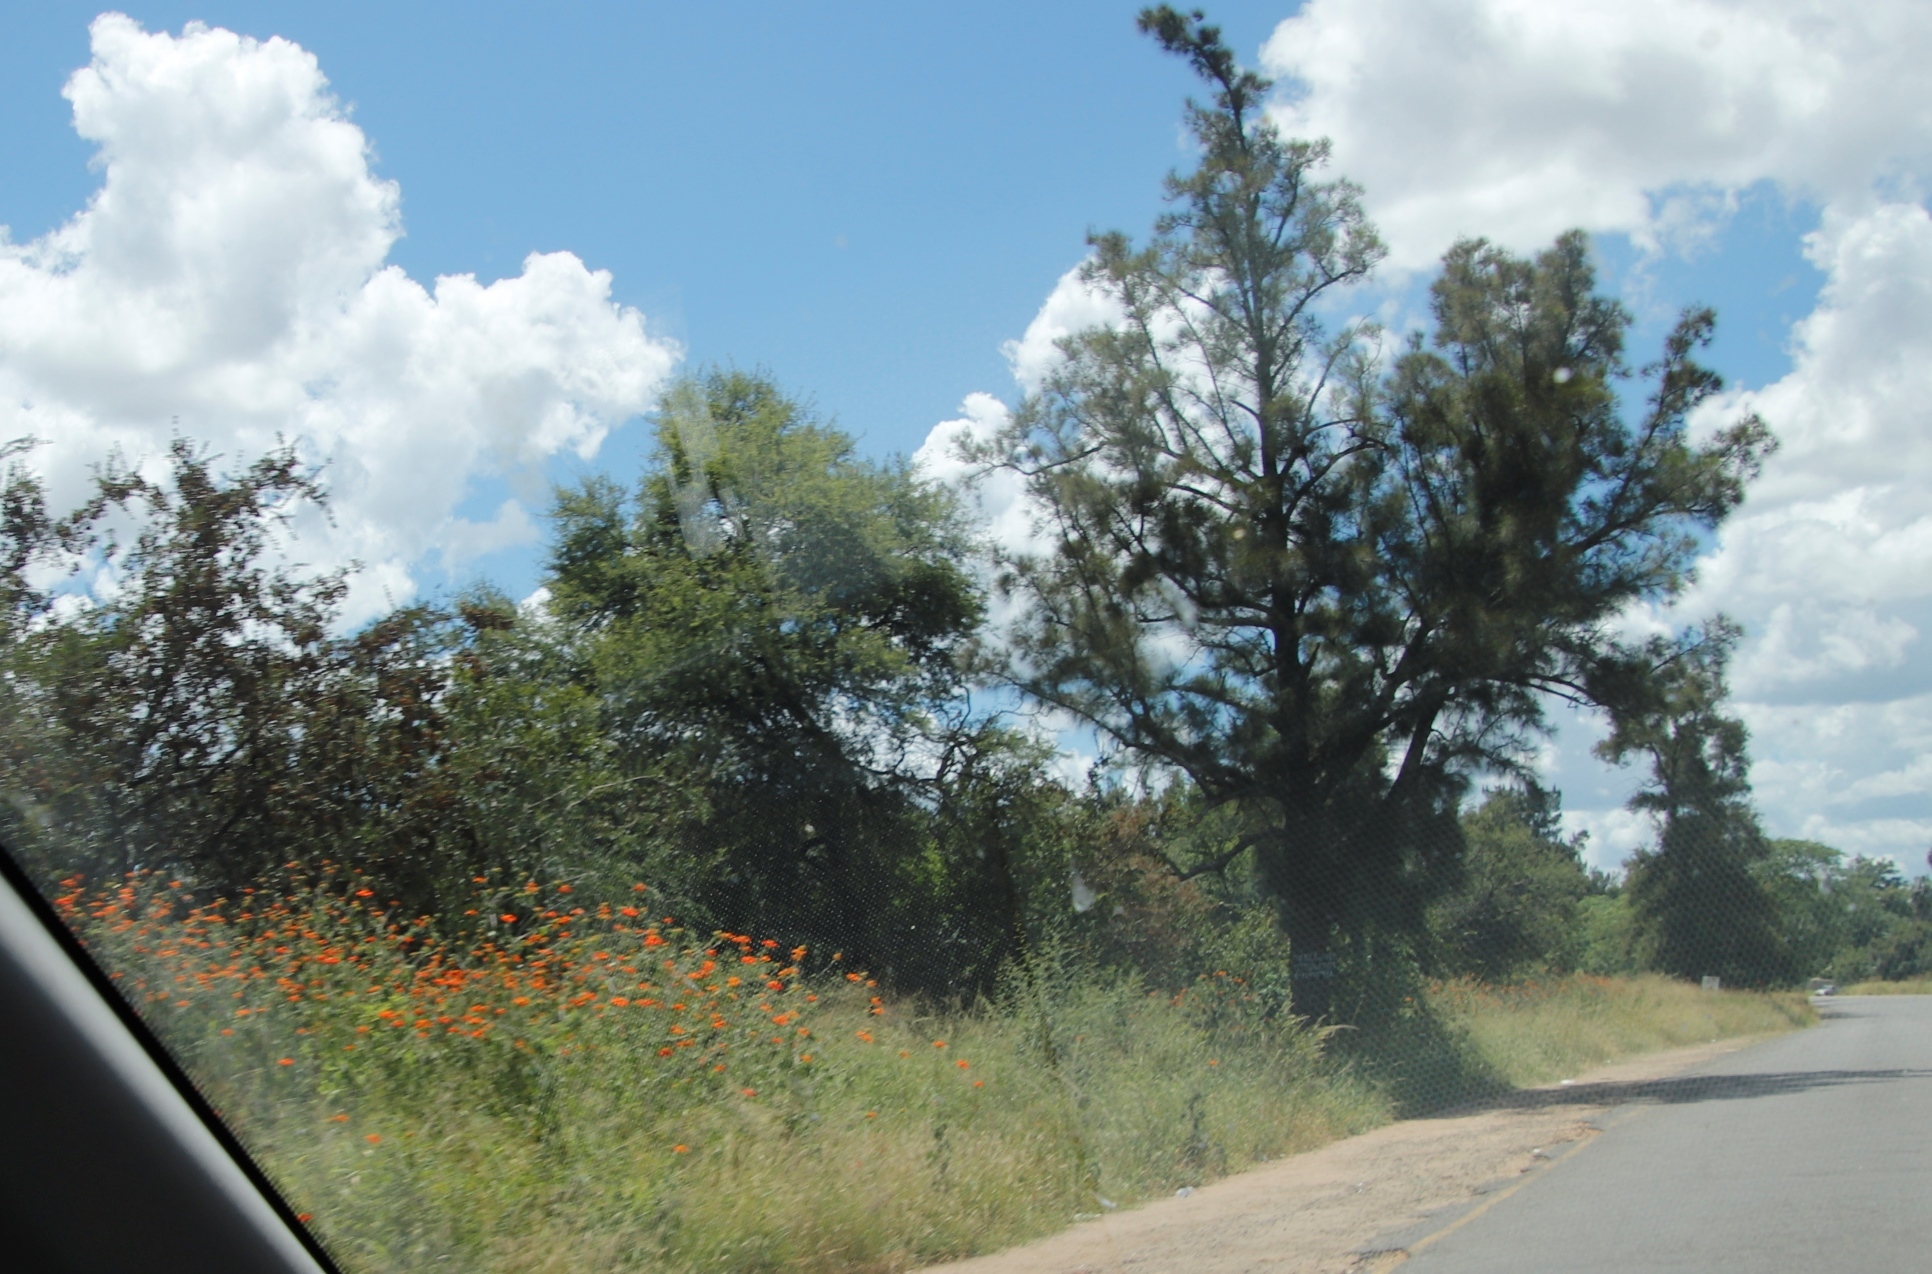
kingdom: Plantae
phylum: Tracheophyta
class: Magnoliopsida
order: Asterales
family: Asteraceae
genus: Tithonia
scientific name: Tithonia rotundifolia
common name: Sunflower
